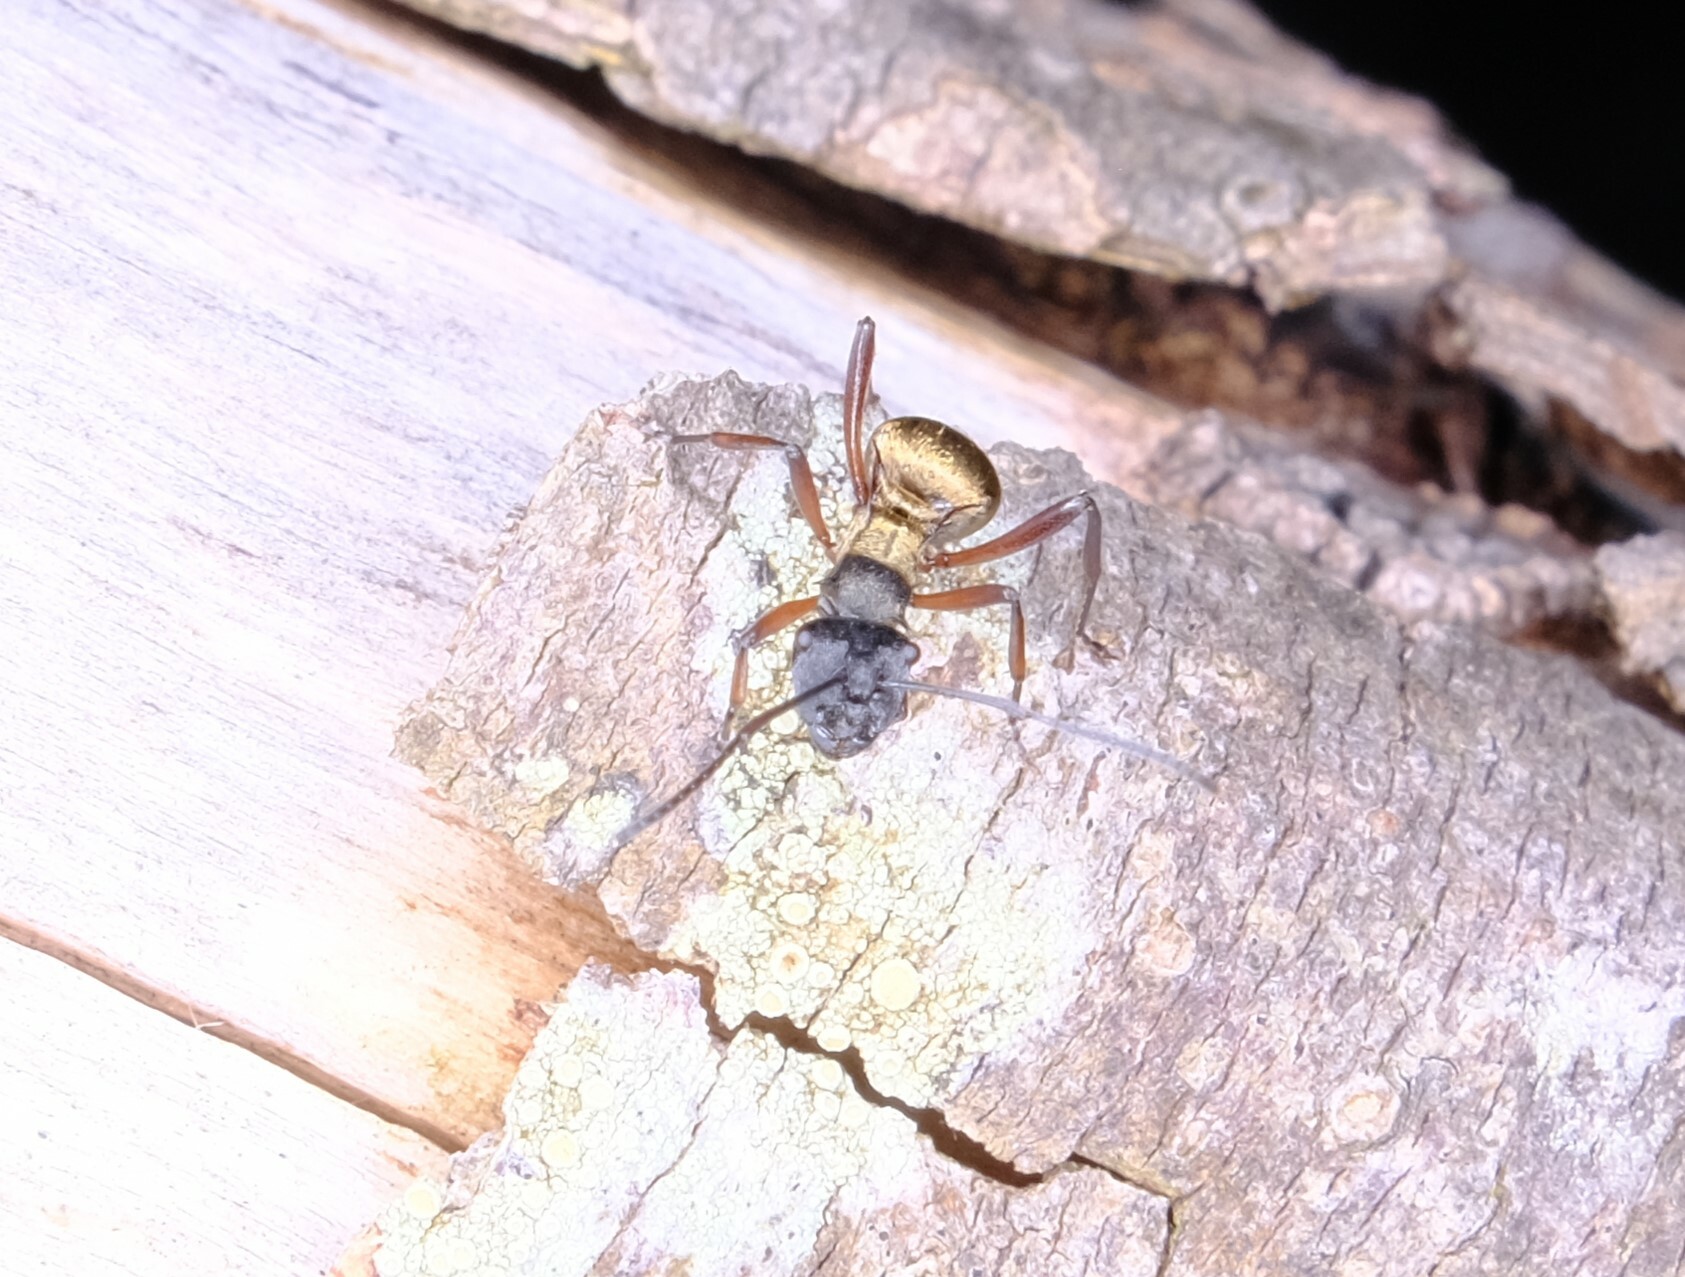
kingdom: Animalia
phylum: Arthropoda
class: Insecta
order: Hymenoptera
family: Formicidae
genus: Polyrhachis
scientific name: Polyrhachis rufifemur
